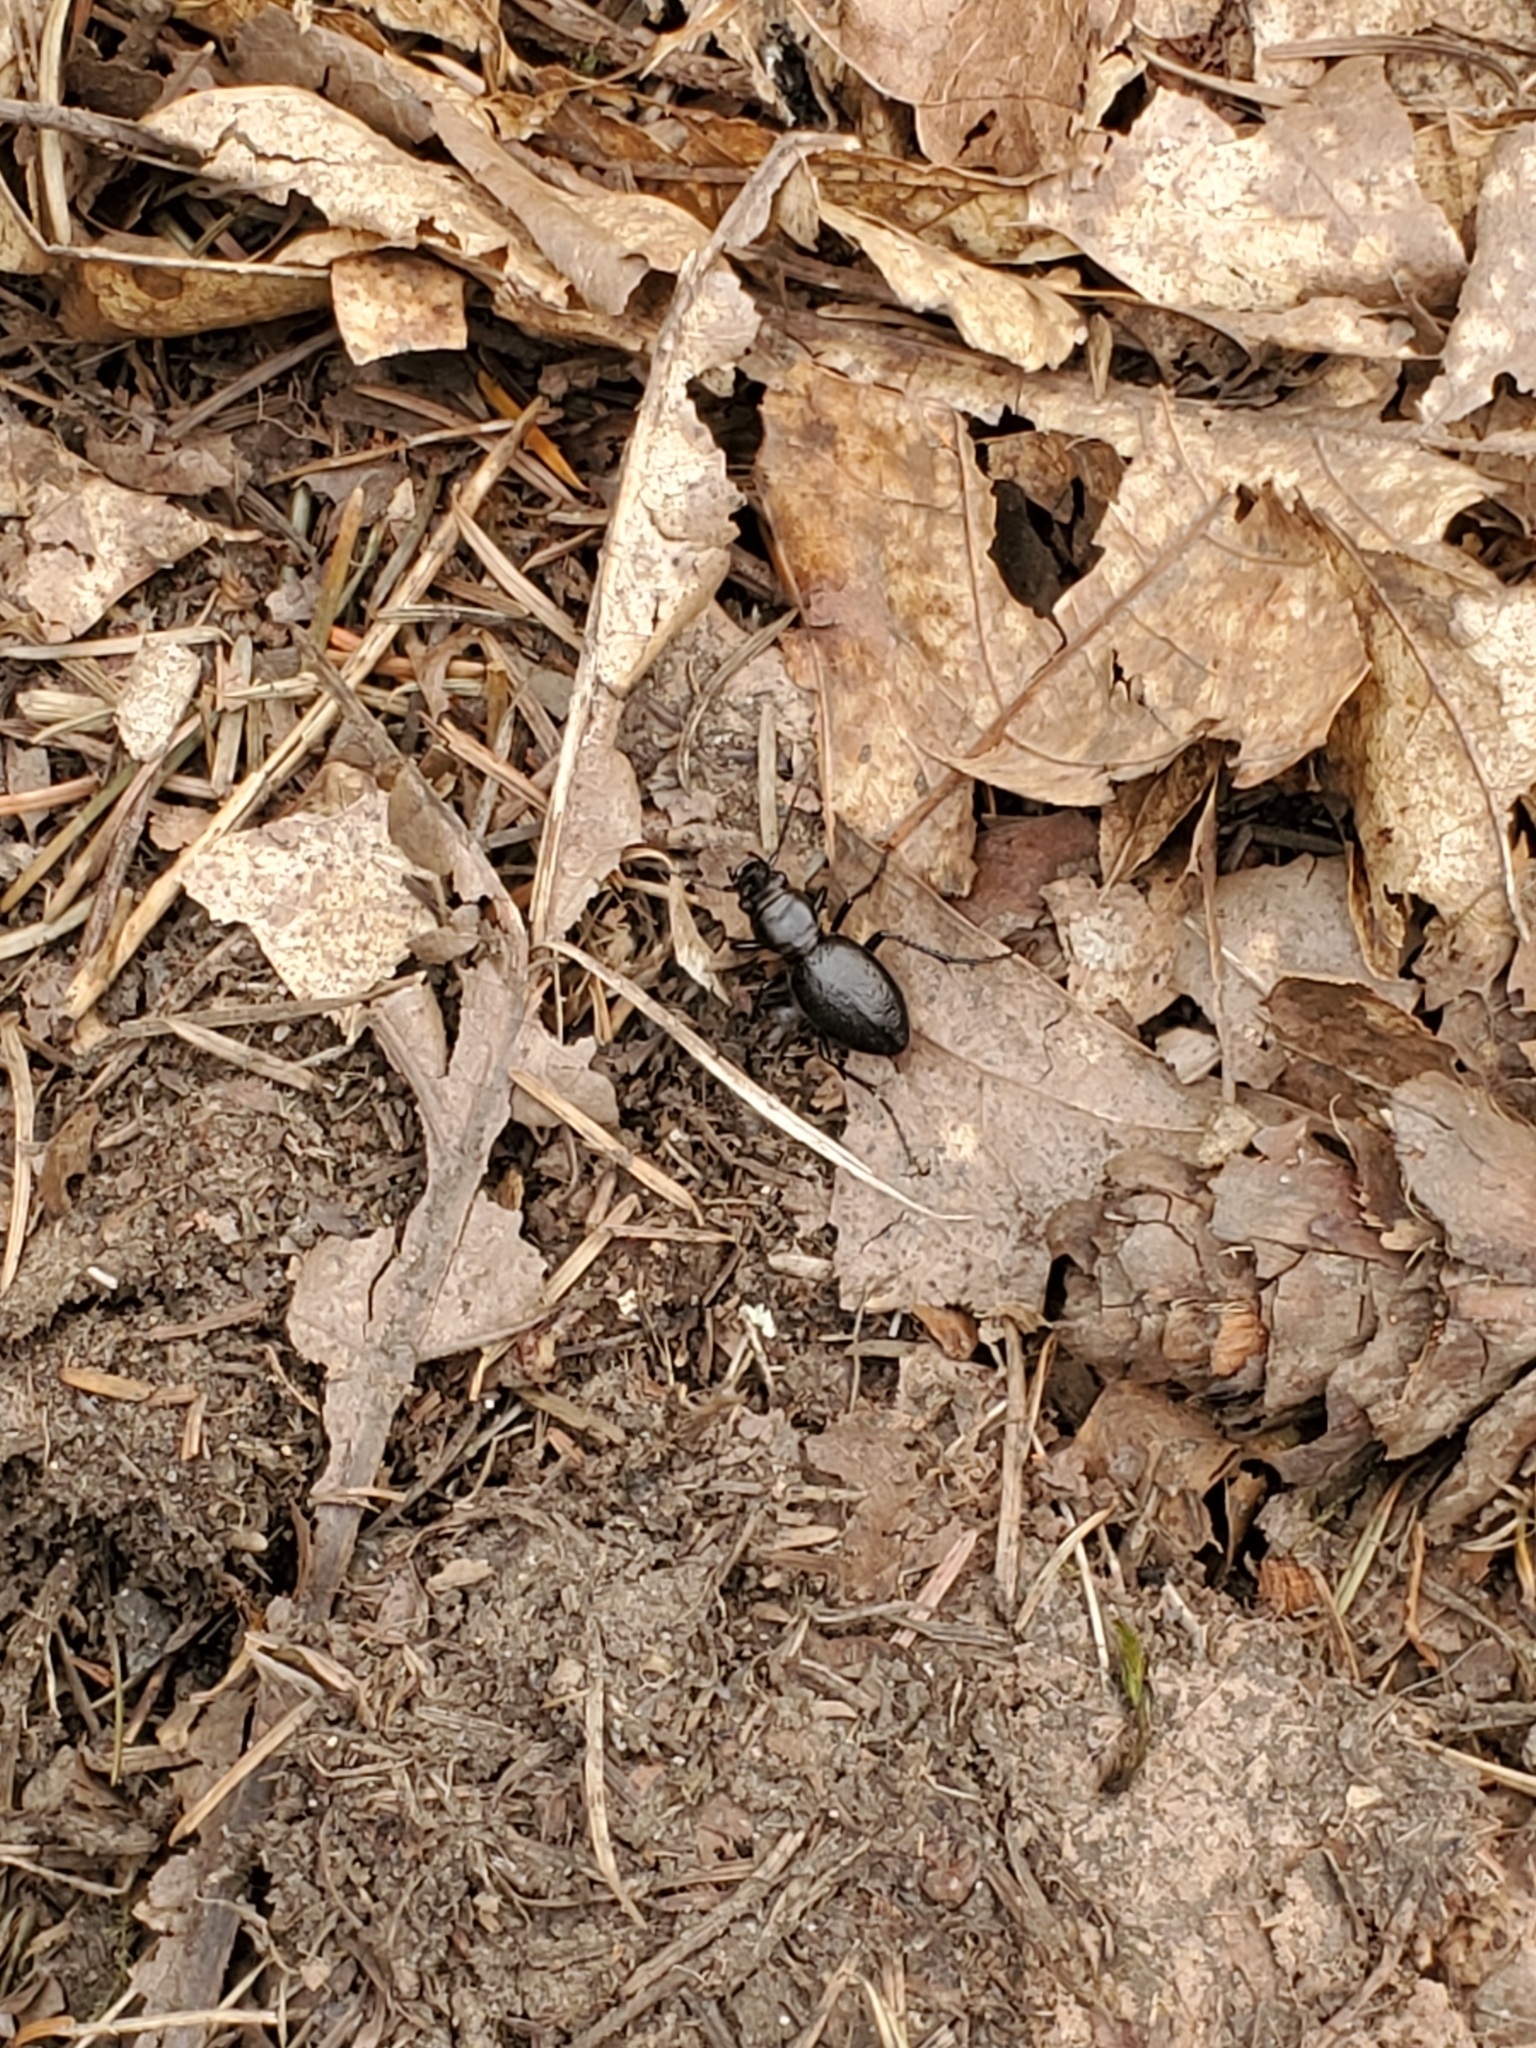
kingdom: Animalia
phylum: Arthropoda
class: Insecta
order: Coleoptera
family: Carabidae
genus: Omus
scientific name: Omus audouini
